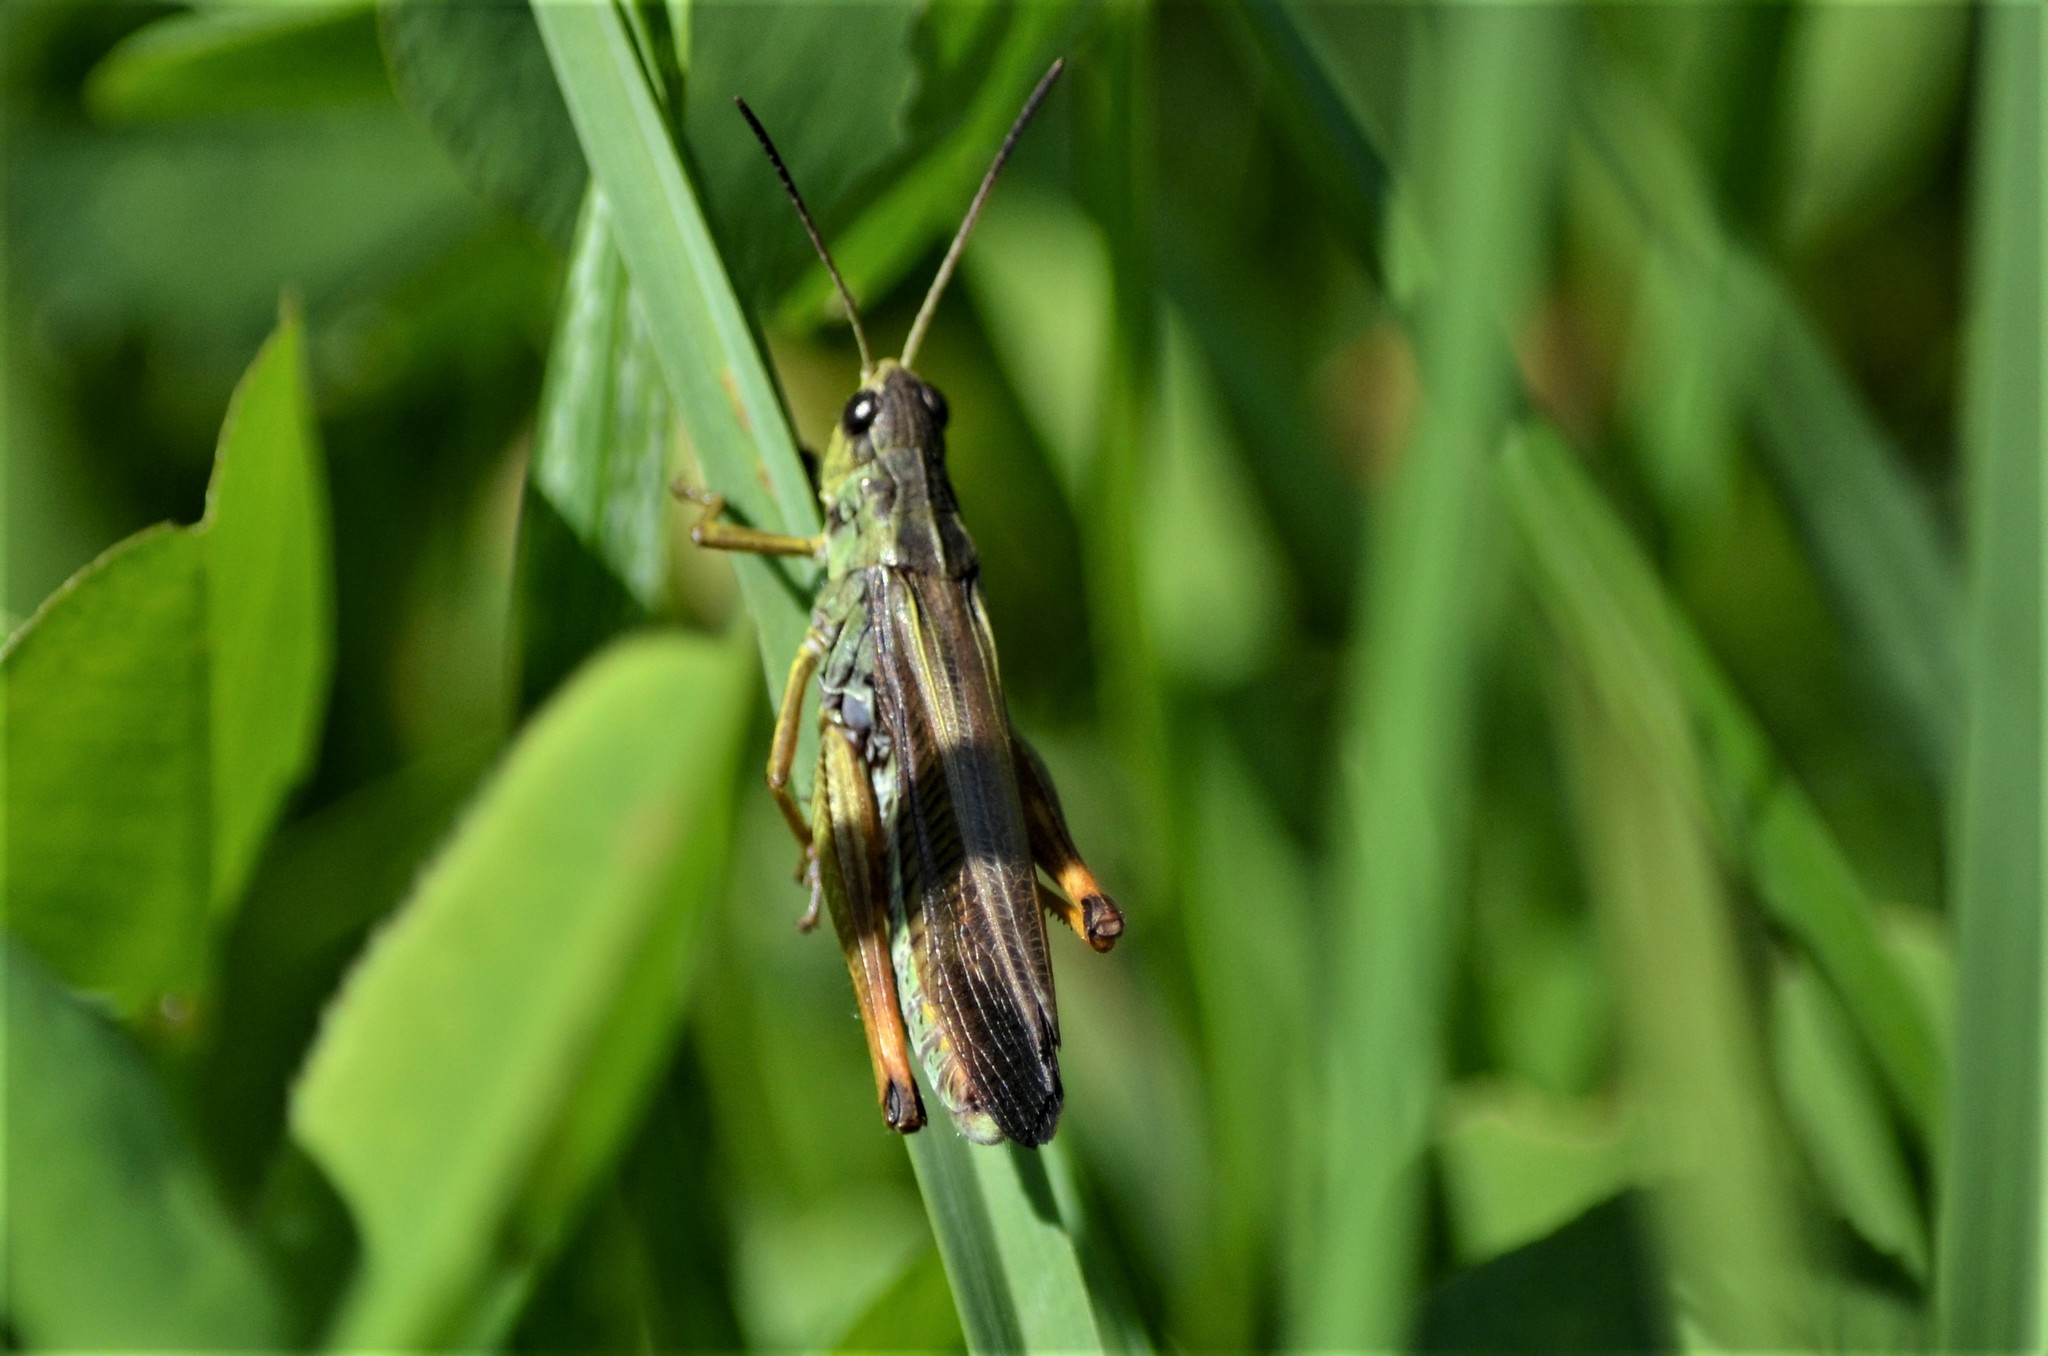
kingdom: Animalia
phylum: Arthropoda
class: Insecta
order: Orthoptera
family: Acrididae
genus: Stauroderus
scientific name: Stauroderus scalaris
